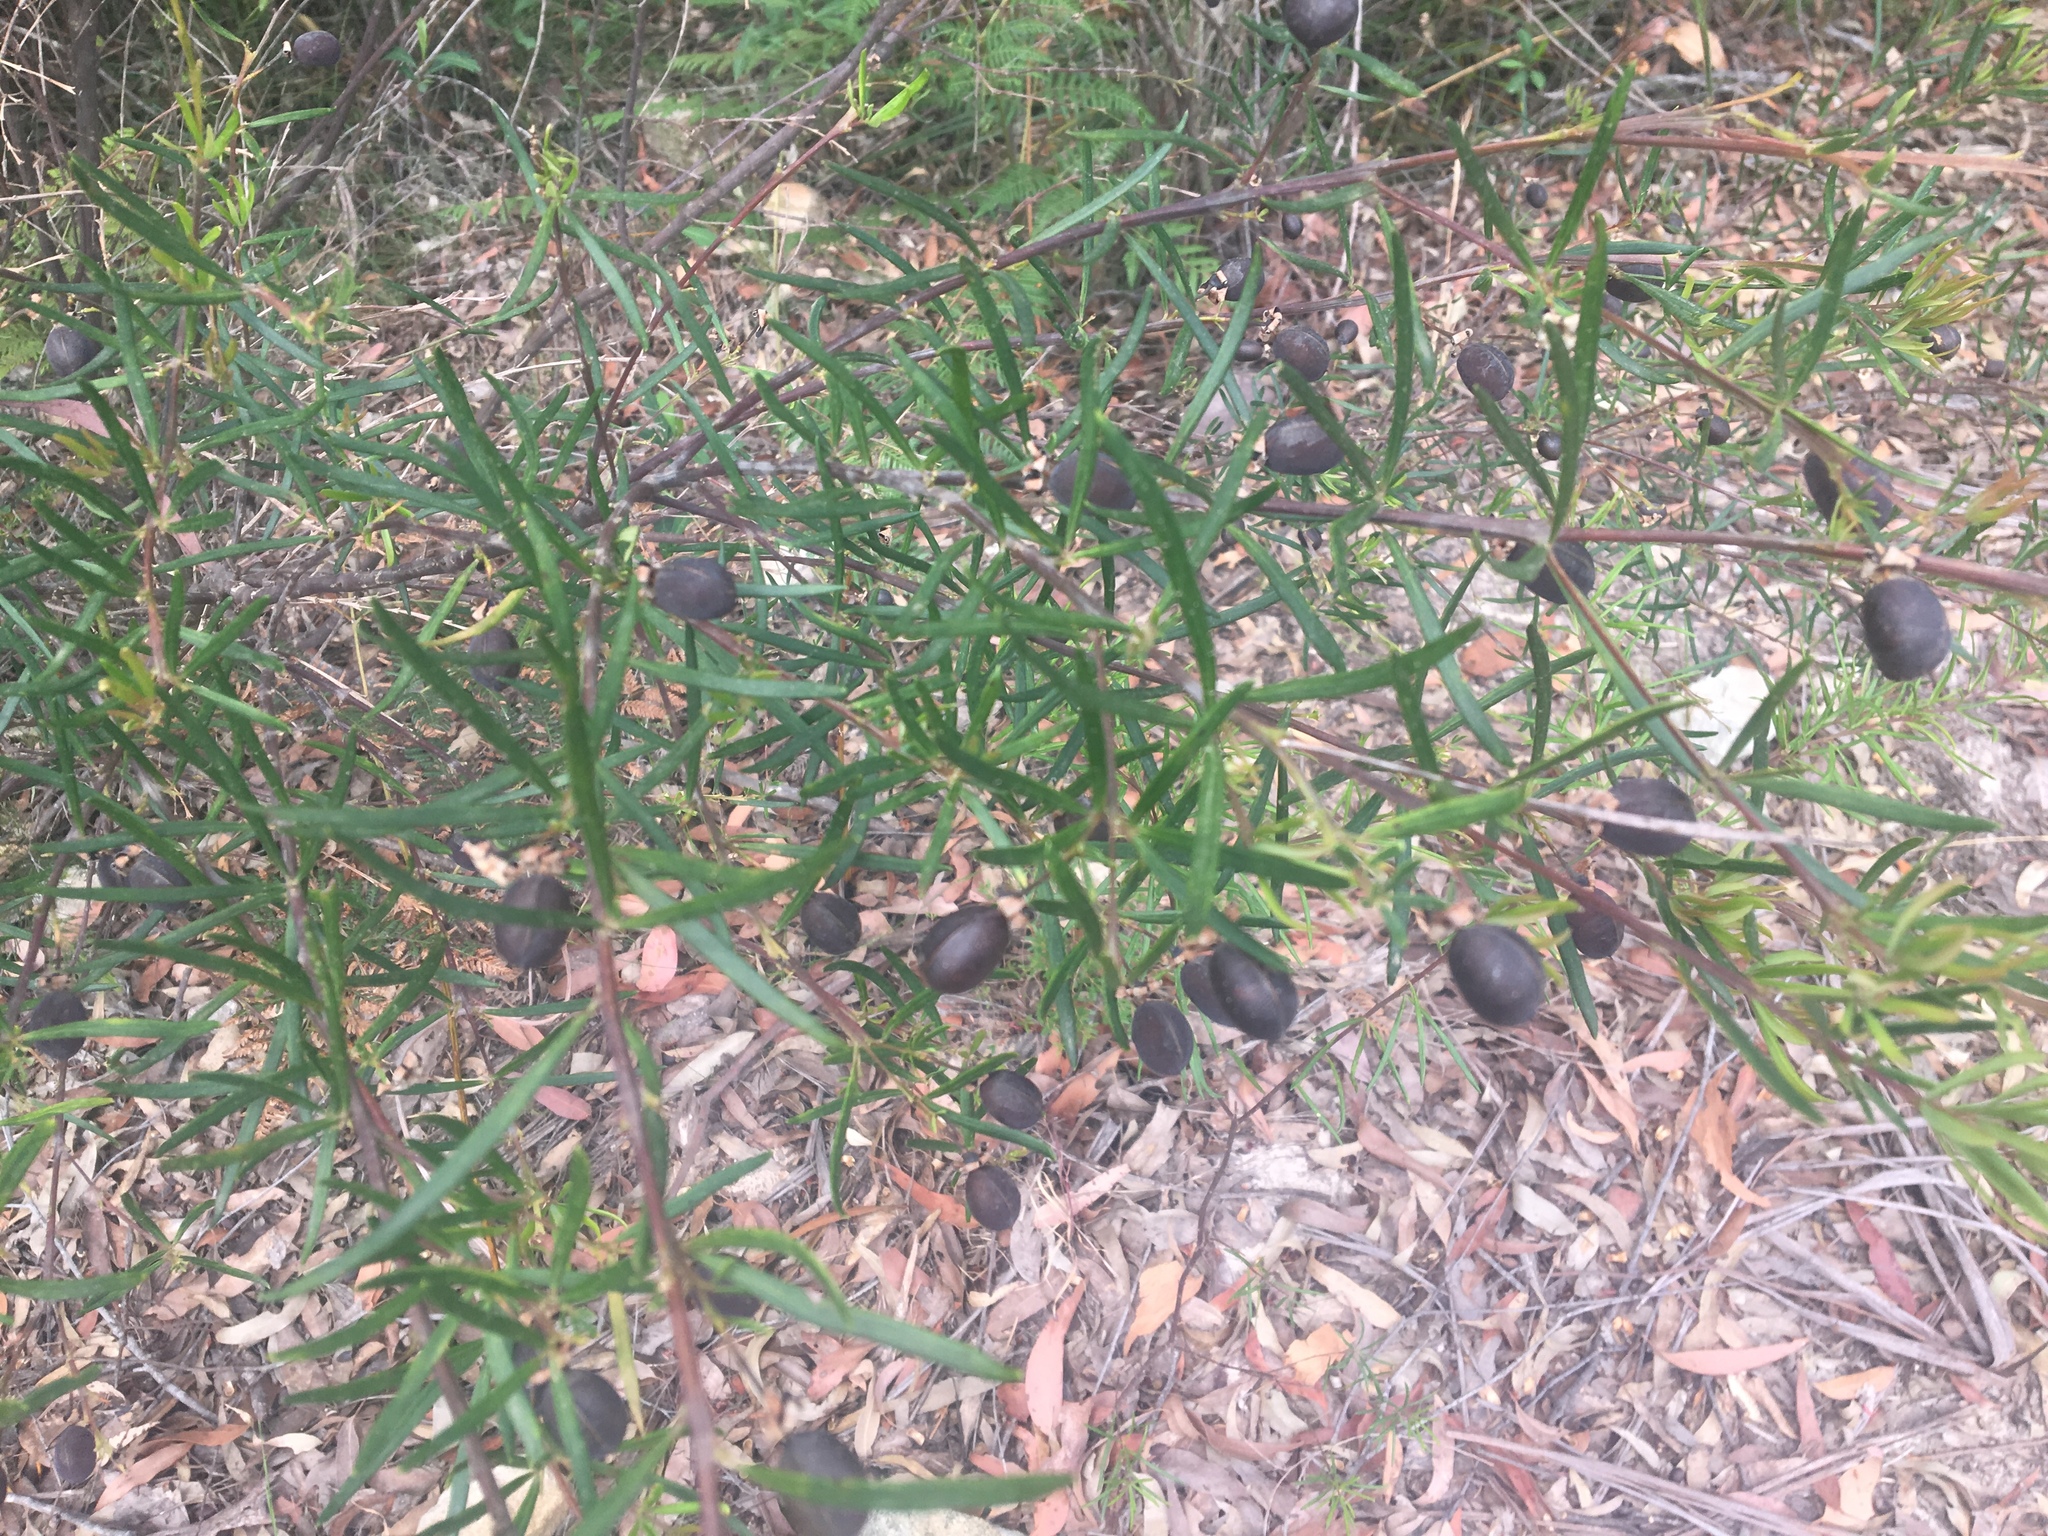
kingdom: Plantae
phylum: Tracheophyta
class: Magnoliopsida
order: Fabales
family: Fabaceae
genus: Gompholobium
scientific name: Gompholobium latifolium
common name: Broadleaf wedge-pea
